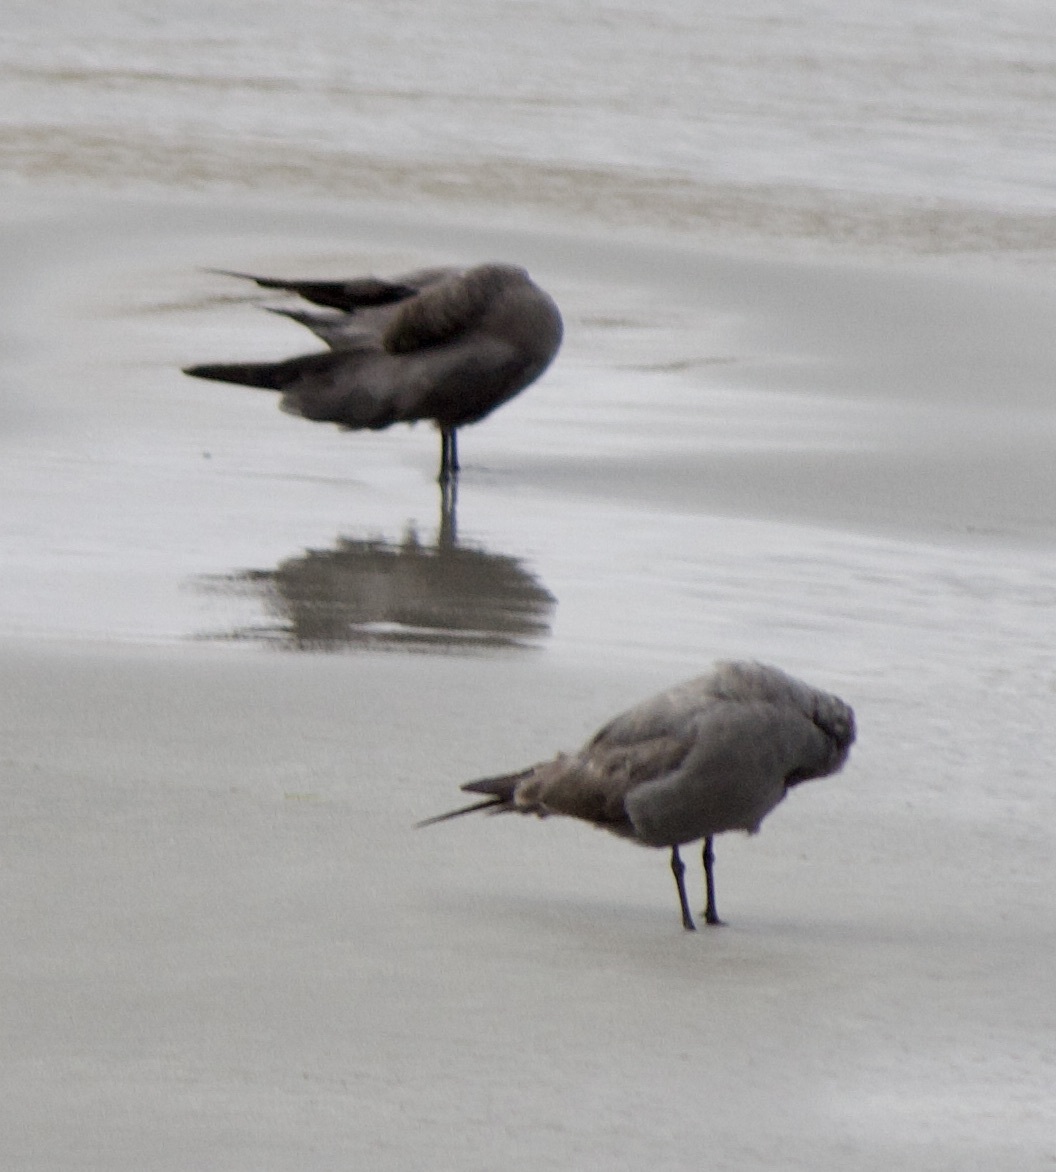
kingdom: Animalia
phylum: Chordata
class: Aves
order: Charadriiformes
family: Laridae
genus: Leucophaeus
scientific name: Leucophaeus modestus
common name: Gray gull
